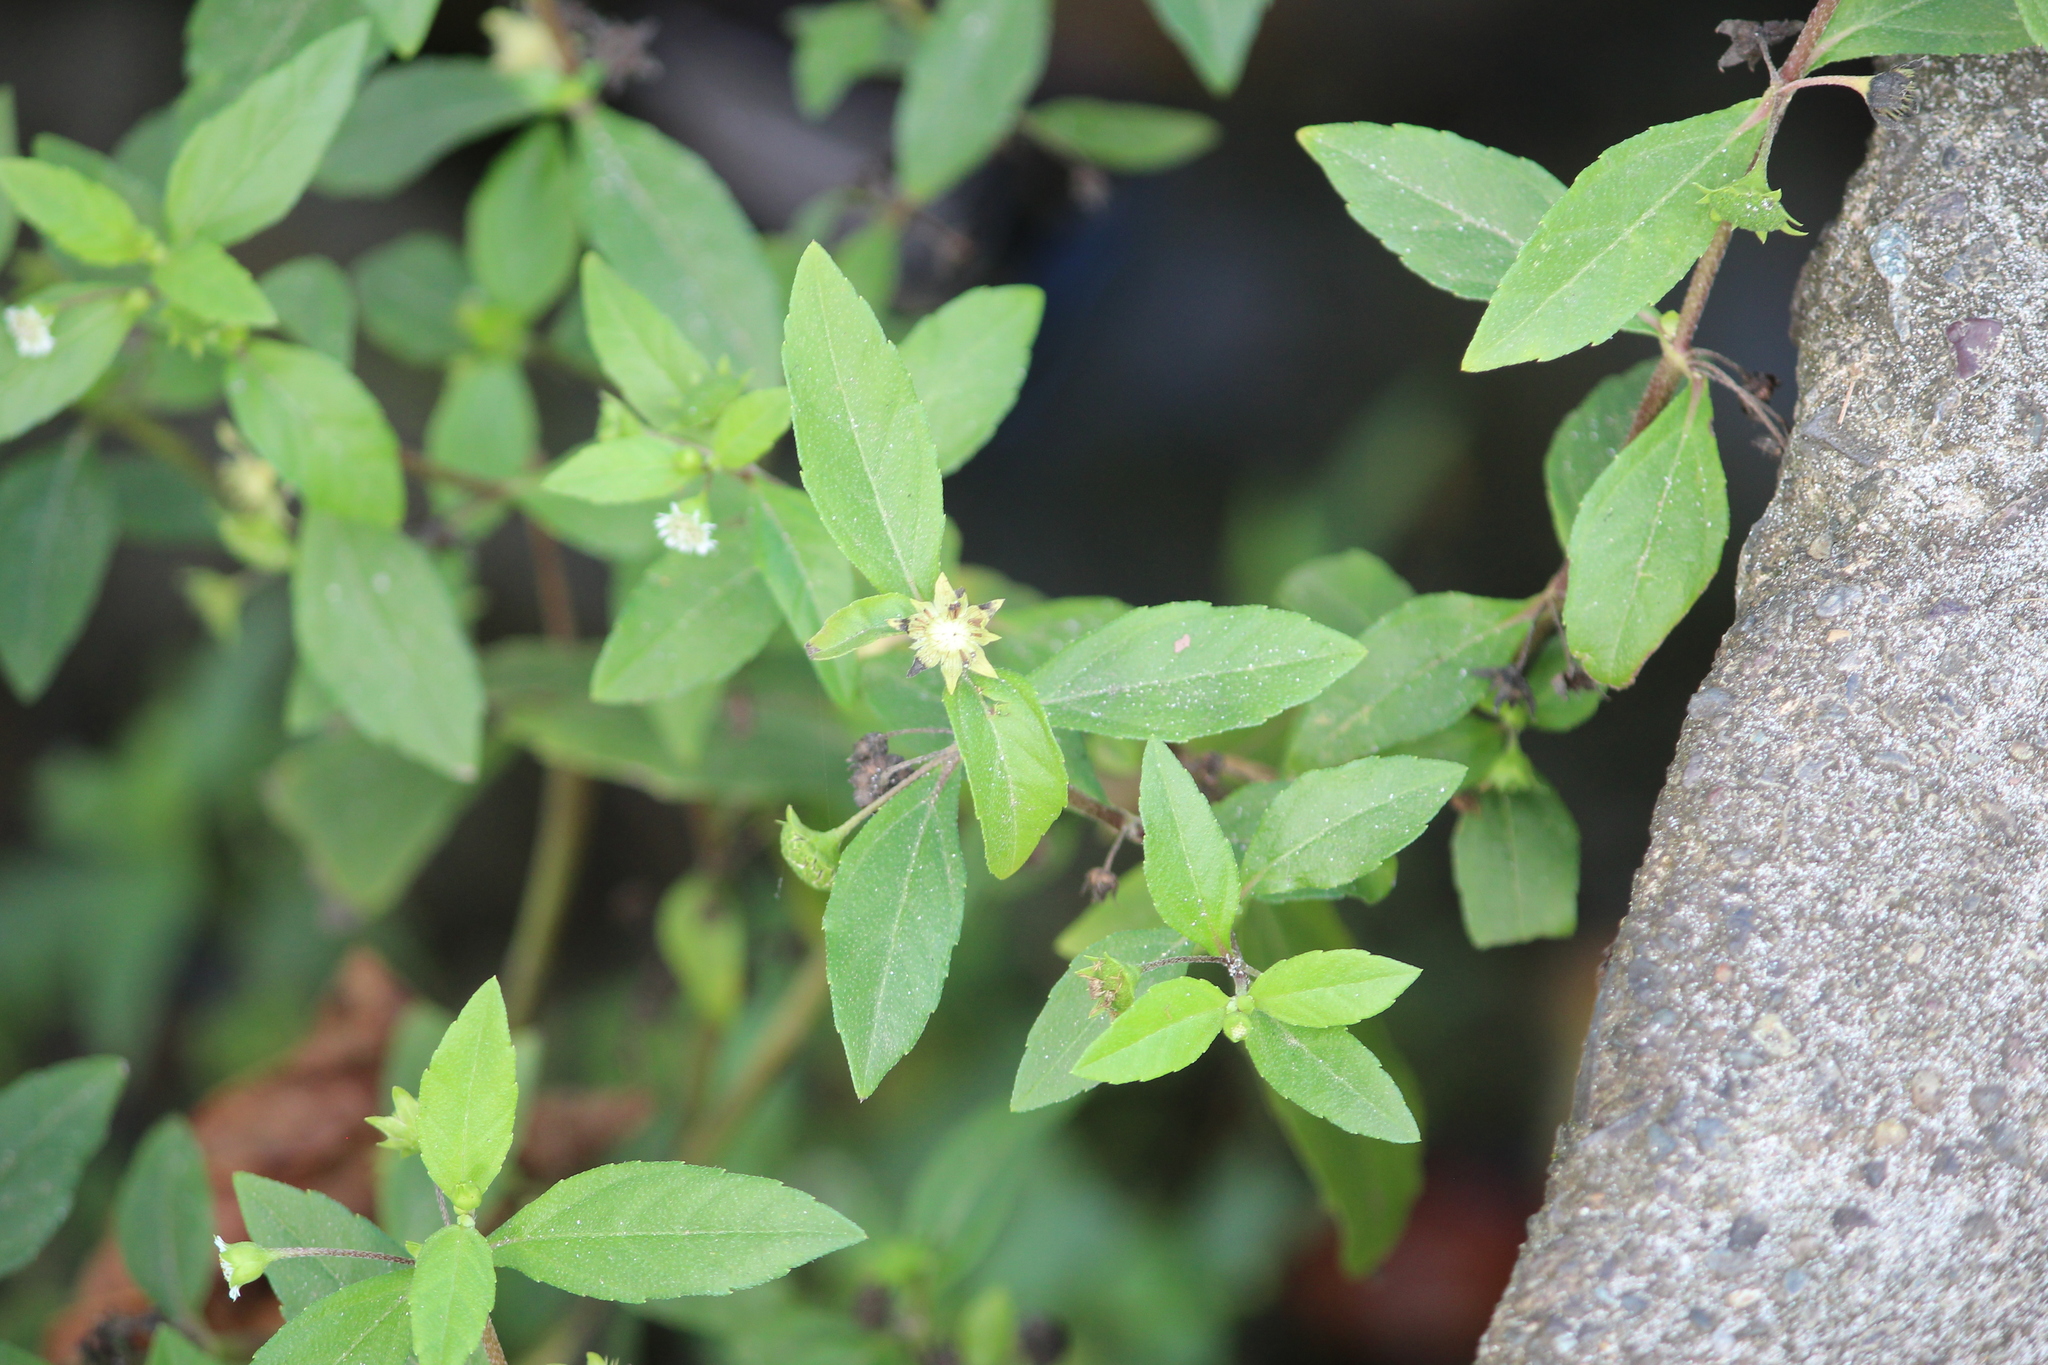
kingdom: Plantae
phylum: Tracheophyta
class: Magnoliopsida
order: Asterales
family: Asteraceae
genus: Eclipta
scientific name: Eclipta prostrata
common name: False daisy
